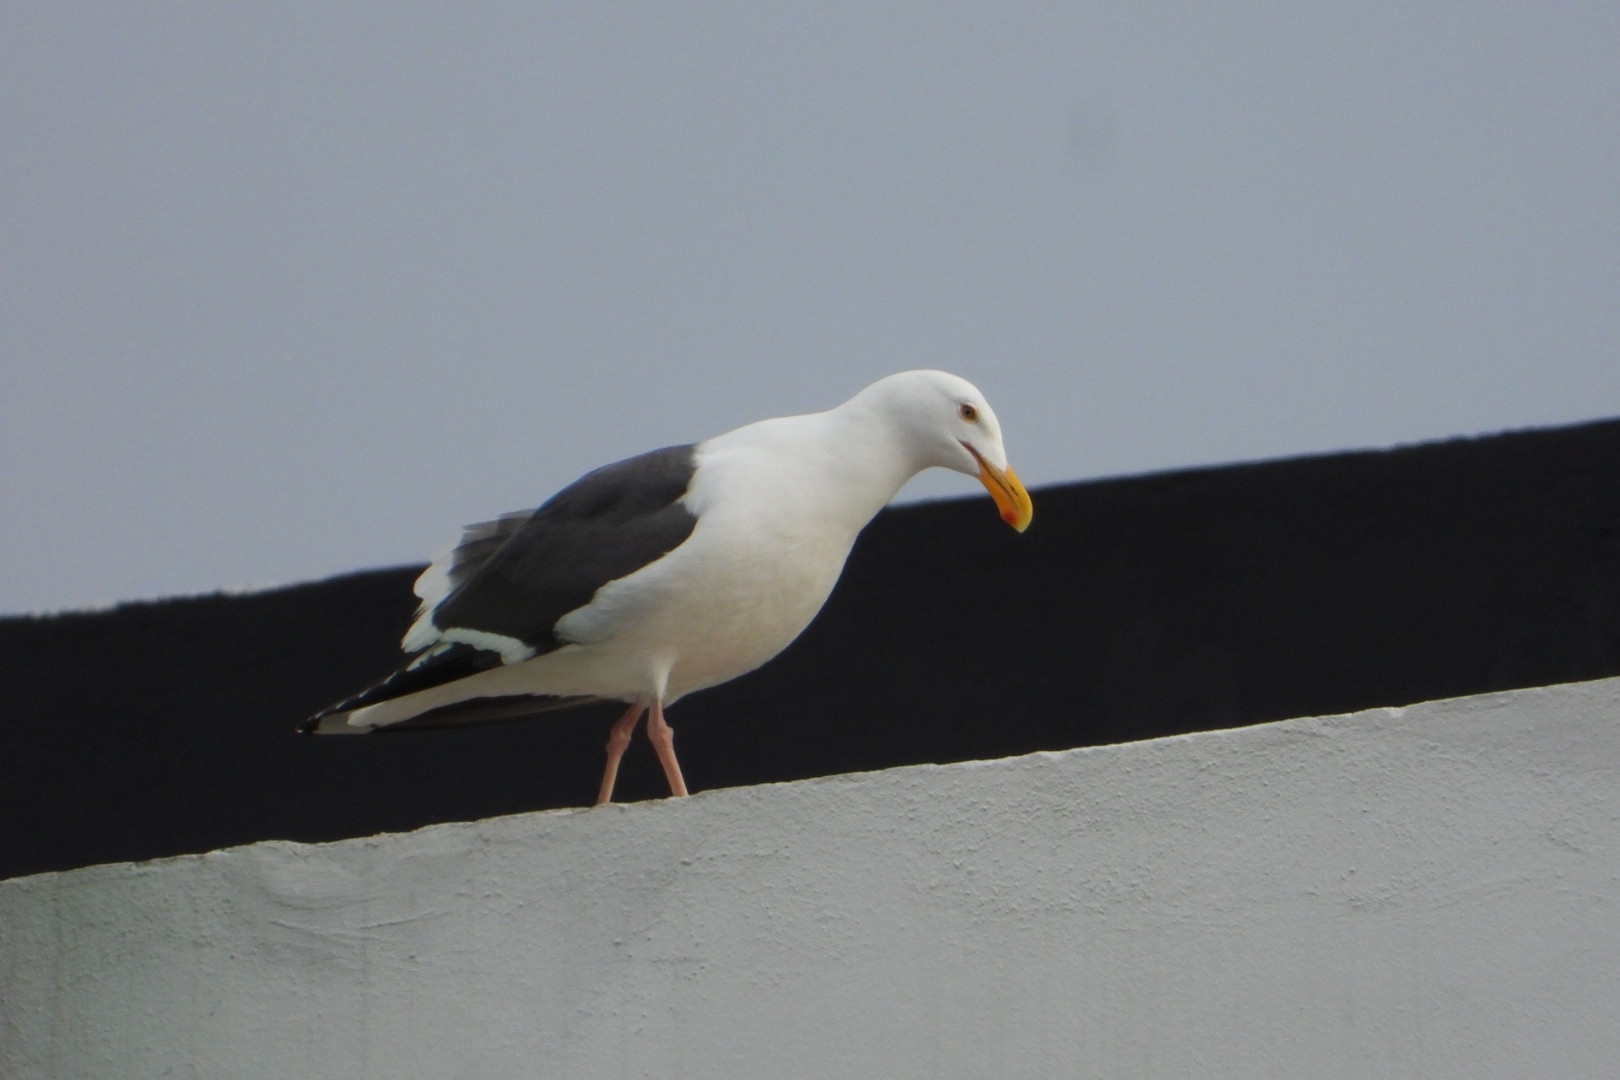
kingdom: Animalia
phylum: Chordata
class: Aves
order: Charadriiformes
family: Laridae
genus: Larus
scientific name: Larus occidentalis
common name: Western gull
